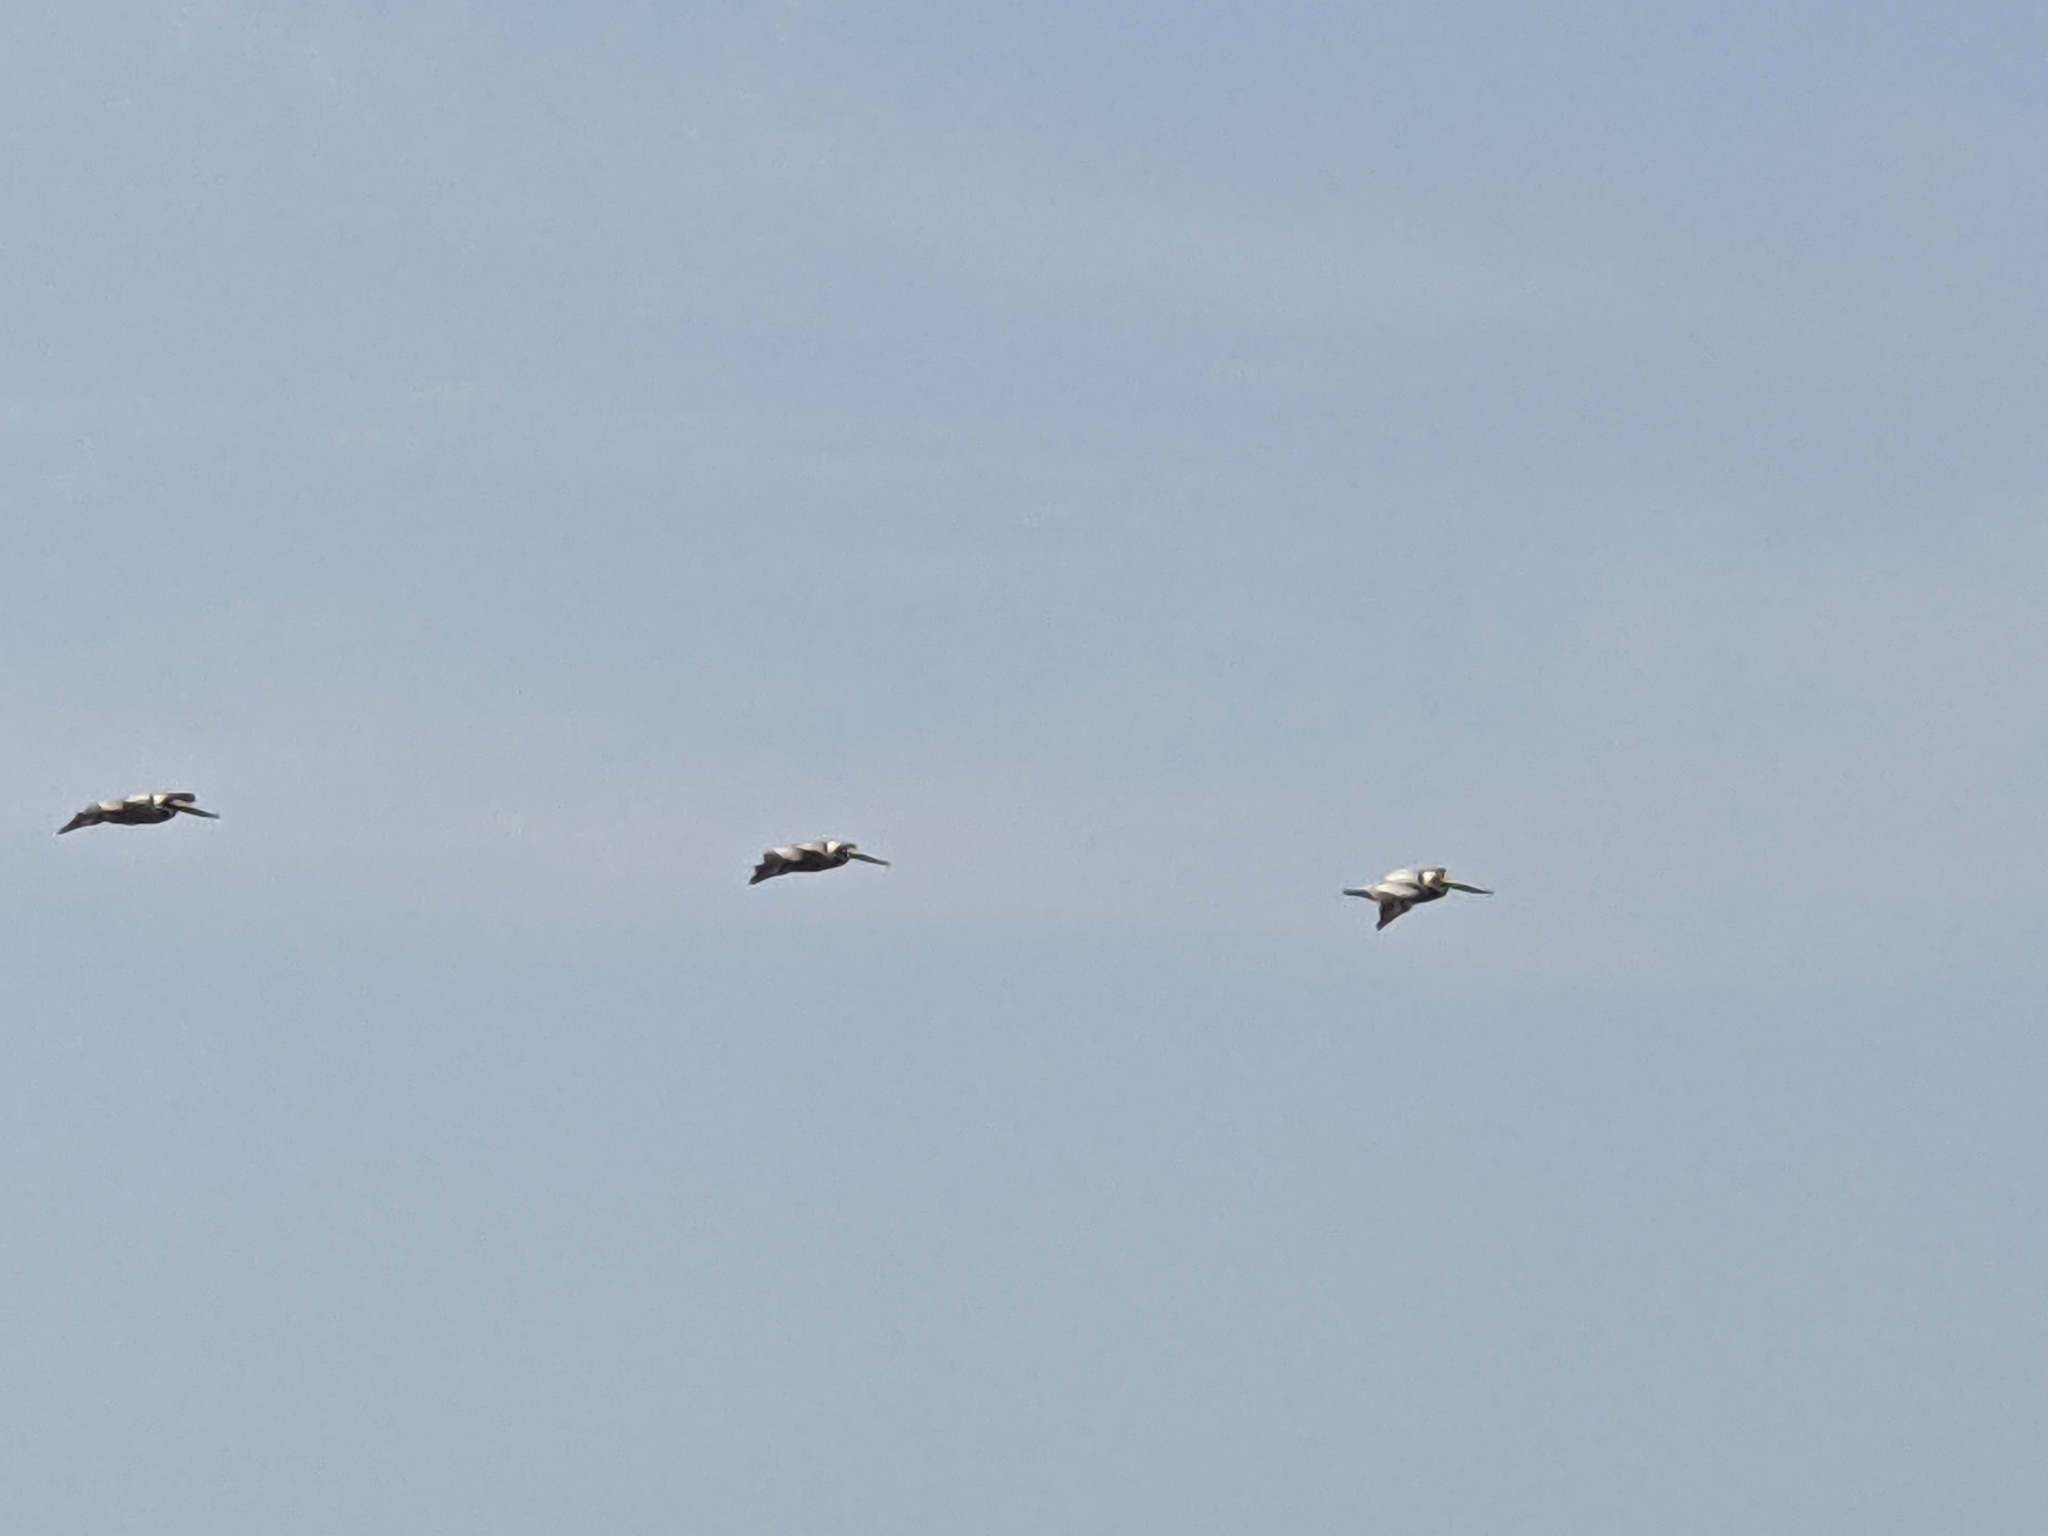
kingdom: Animalia
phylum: Chordata
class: Aves
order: Pelecaniformes
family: Pelecanidae
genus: Pelecanus
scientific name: Pelecanus occidentalis
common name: Brown pelican
